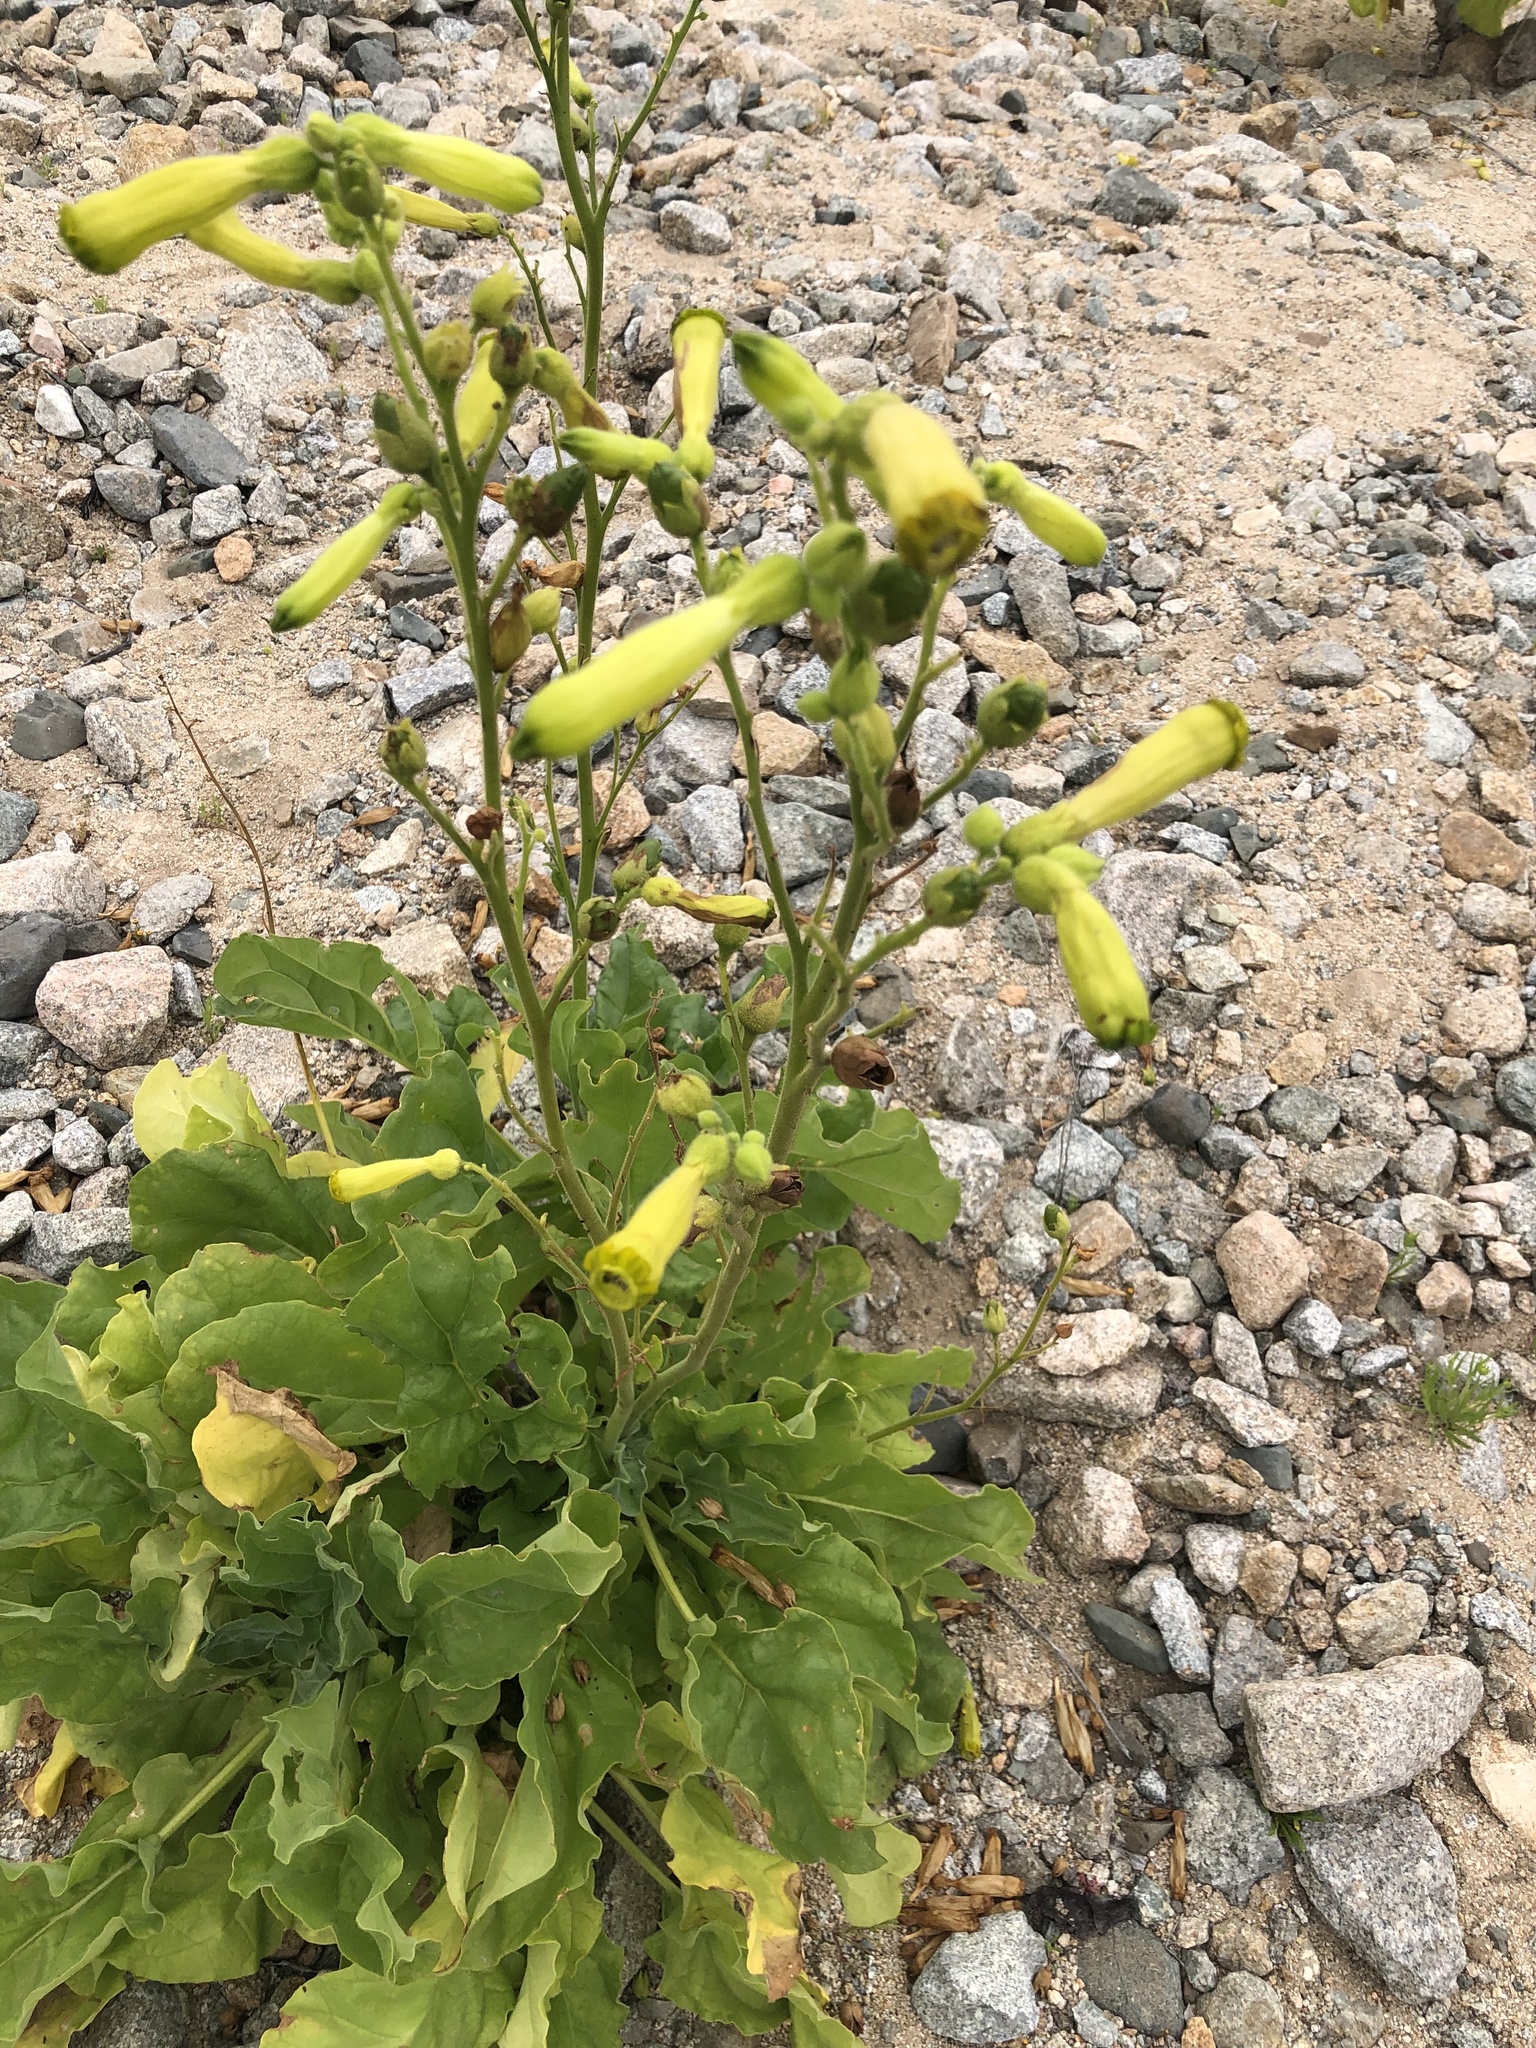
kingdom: Plantae
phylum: Tracheophyta
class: Magnoliopsida
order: Solanales
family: Solanaceae
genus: Nicotiana
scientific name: Nicotiana solanifolia
